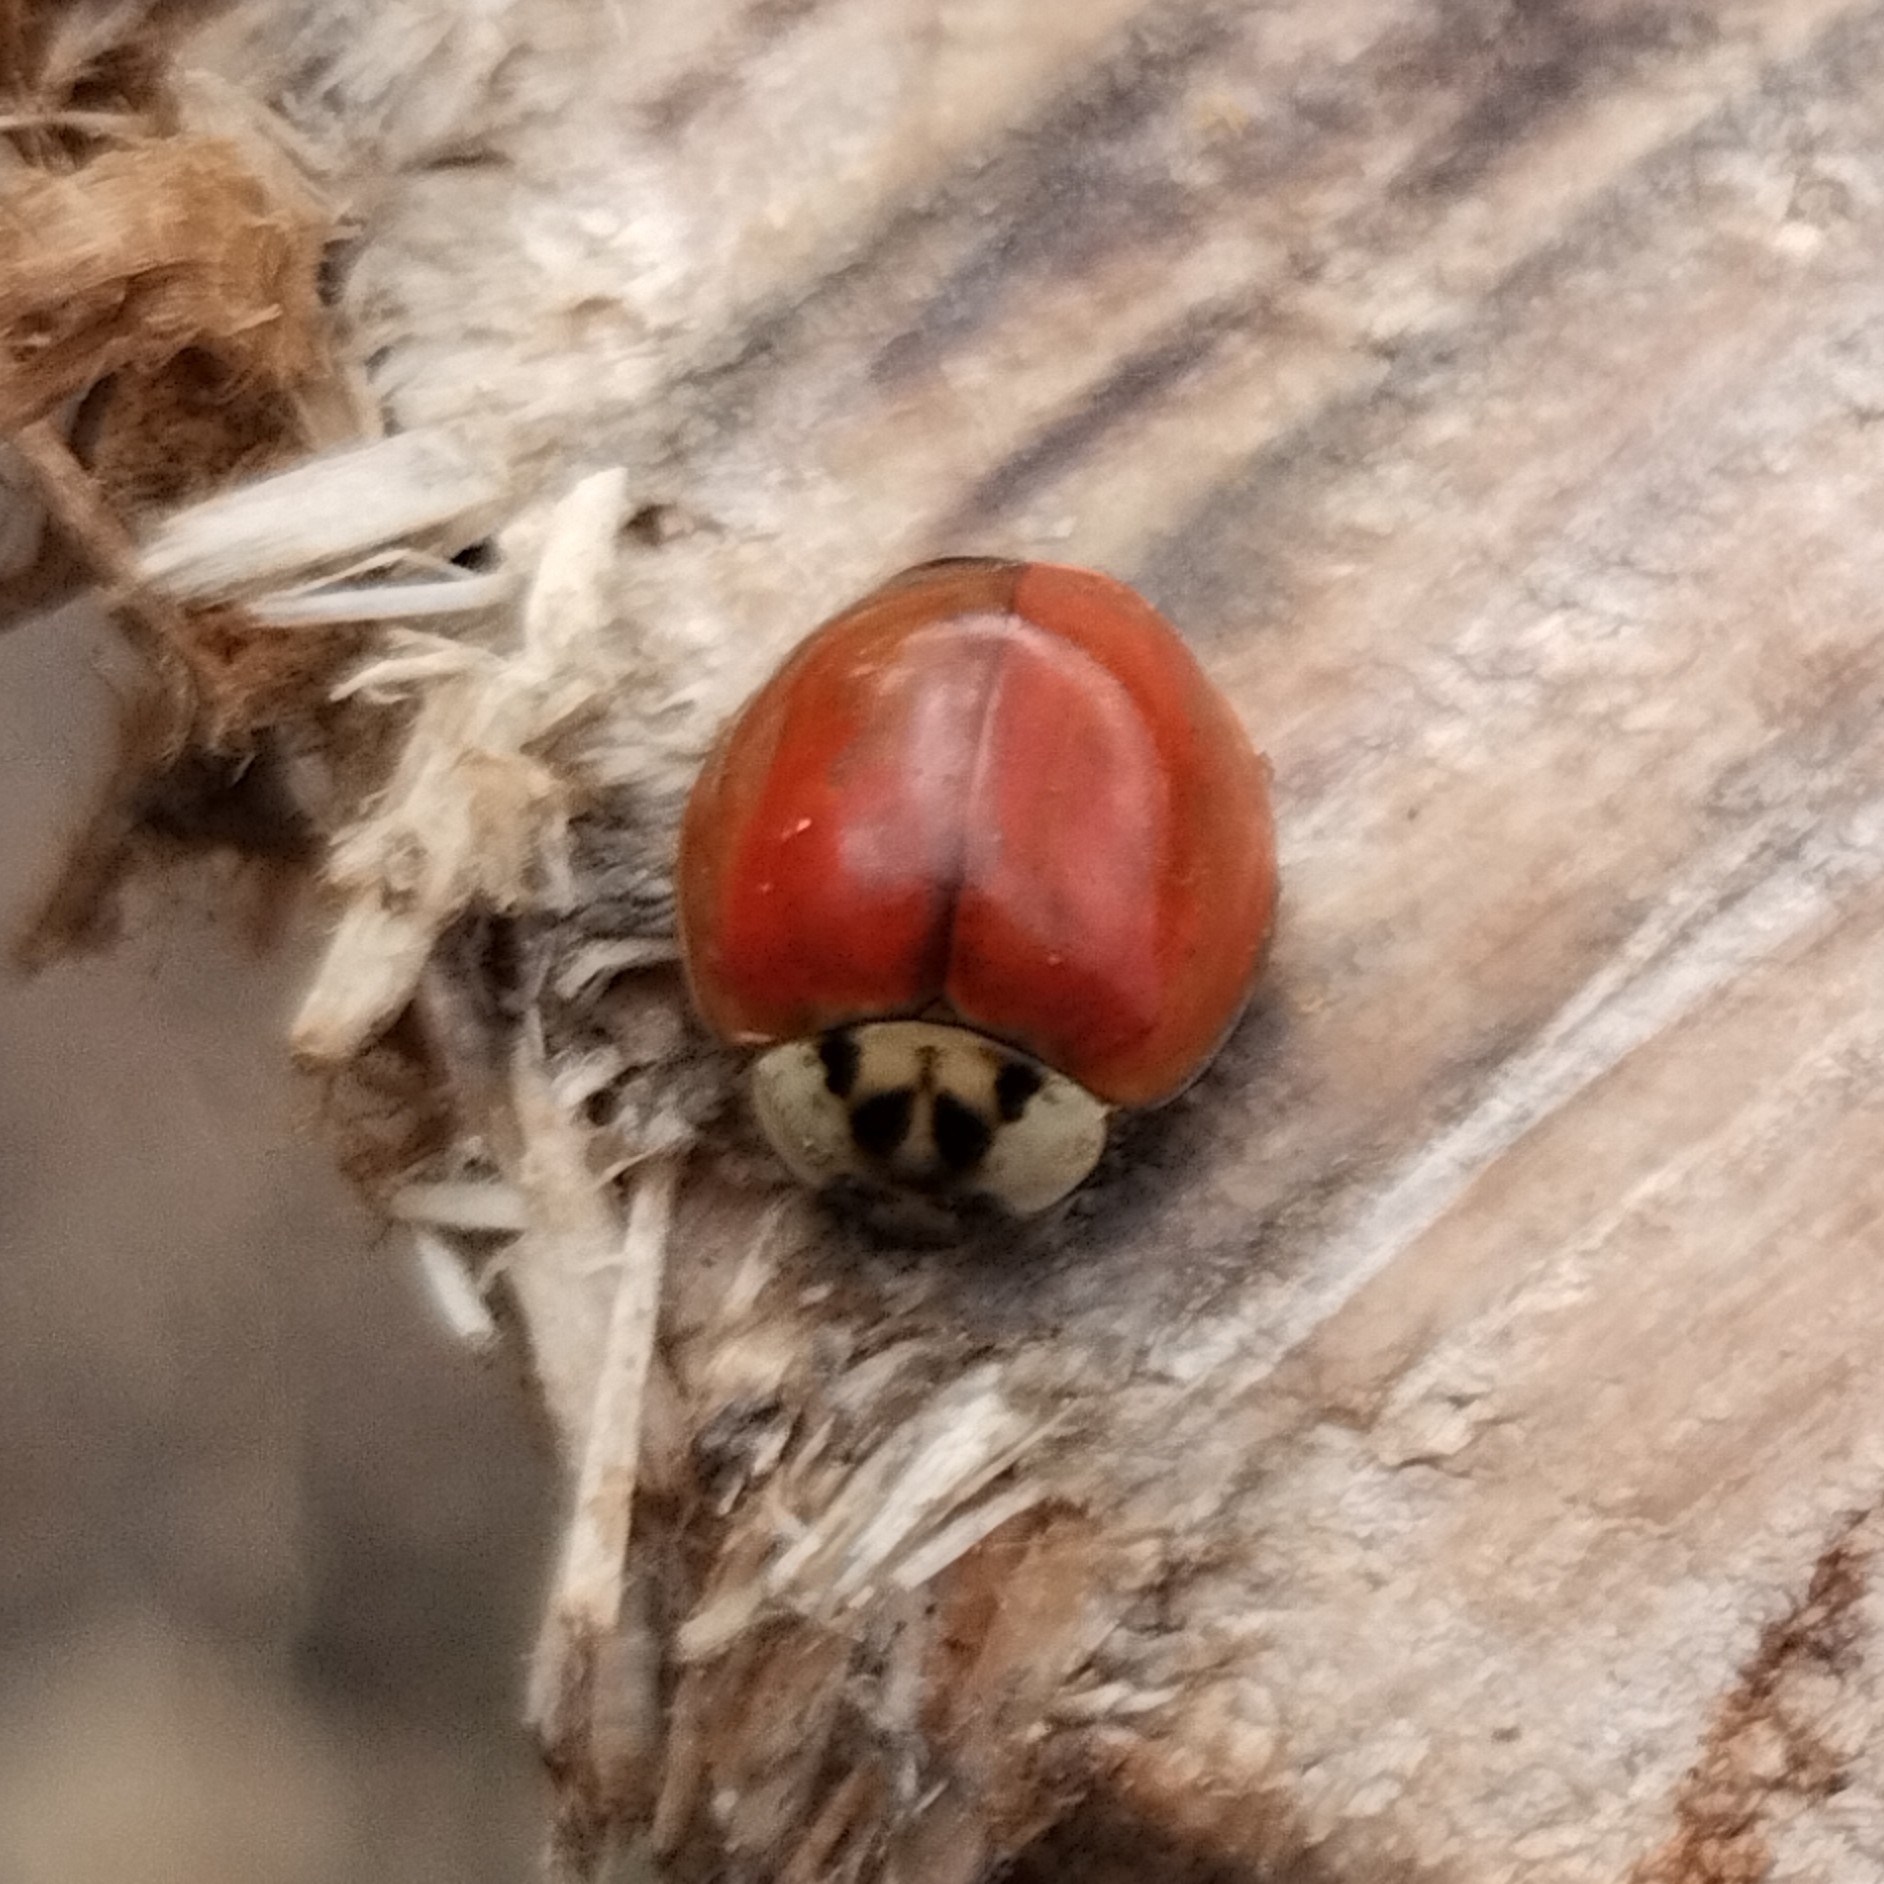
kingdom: Animalia
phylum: Arthropoda
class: Insecta
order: Coleoptera
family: Coccinellidae
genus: Harmonia
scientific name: Harmonia axyridis
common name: Harlequin ladybird
